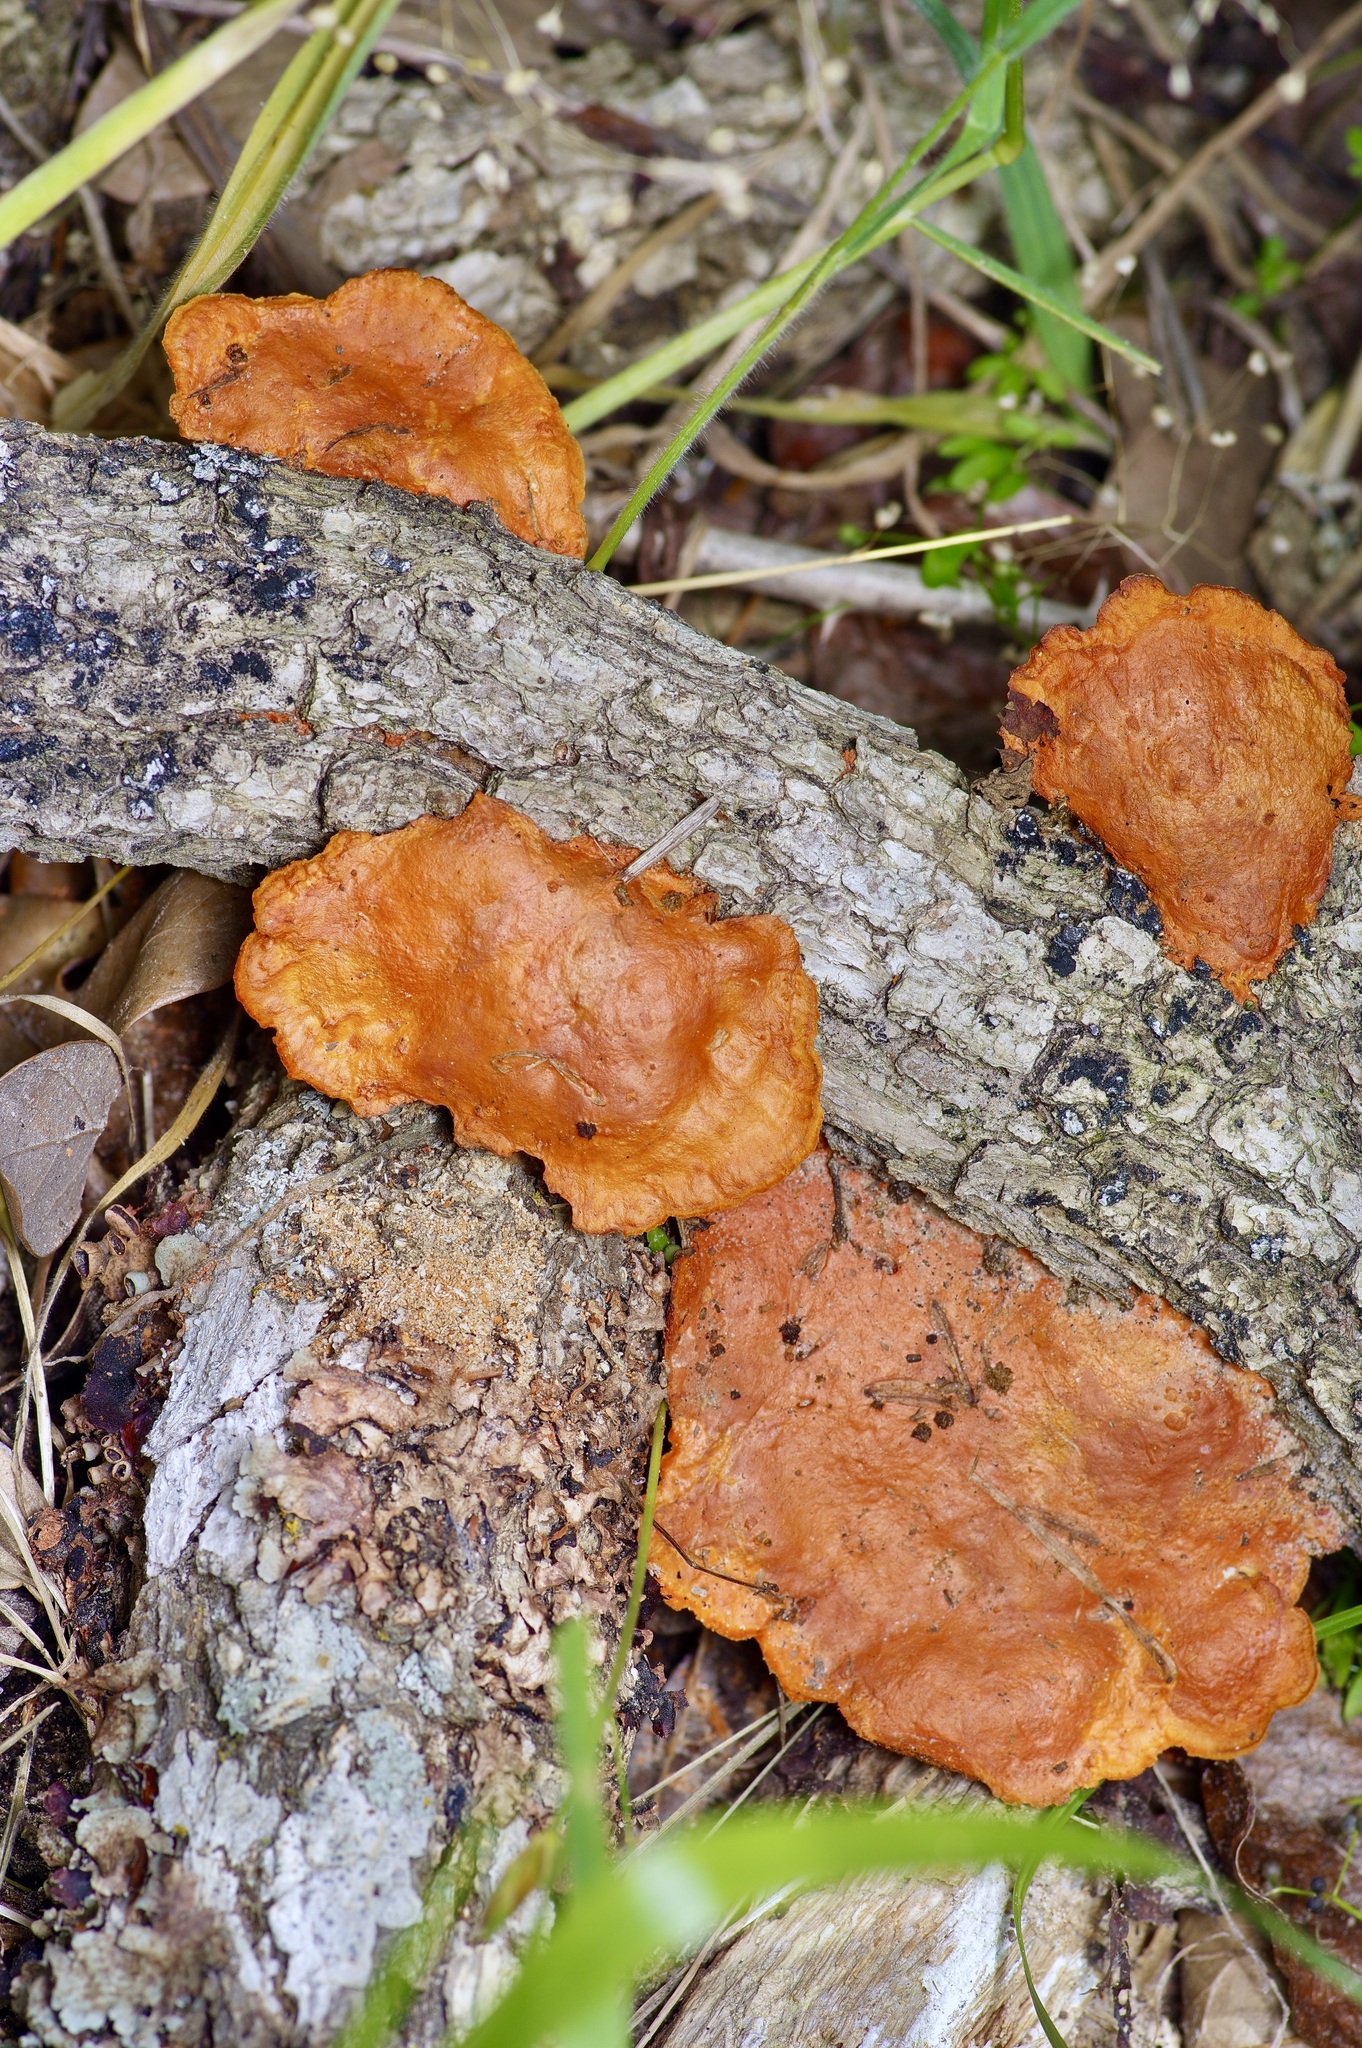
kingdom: Fungi
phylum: Basidiomycota
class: Agaricomycetes
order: Polyporales
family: Polyporaceae
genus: Trametes
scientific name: Trametes cinnabarina
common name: Northern cinnabar polypore
